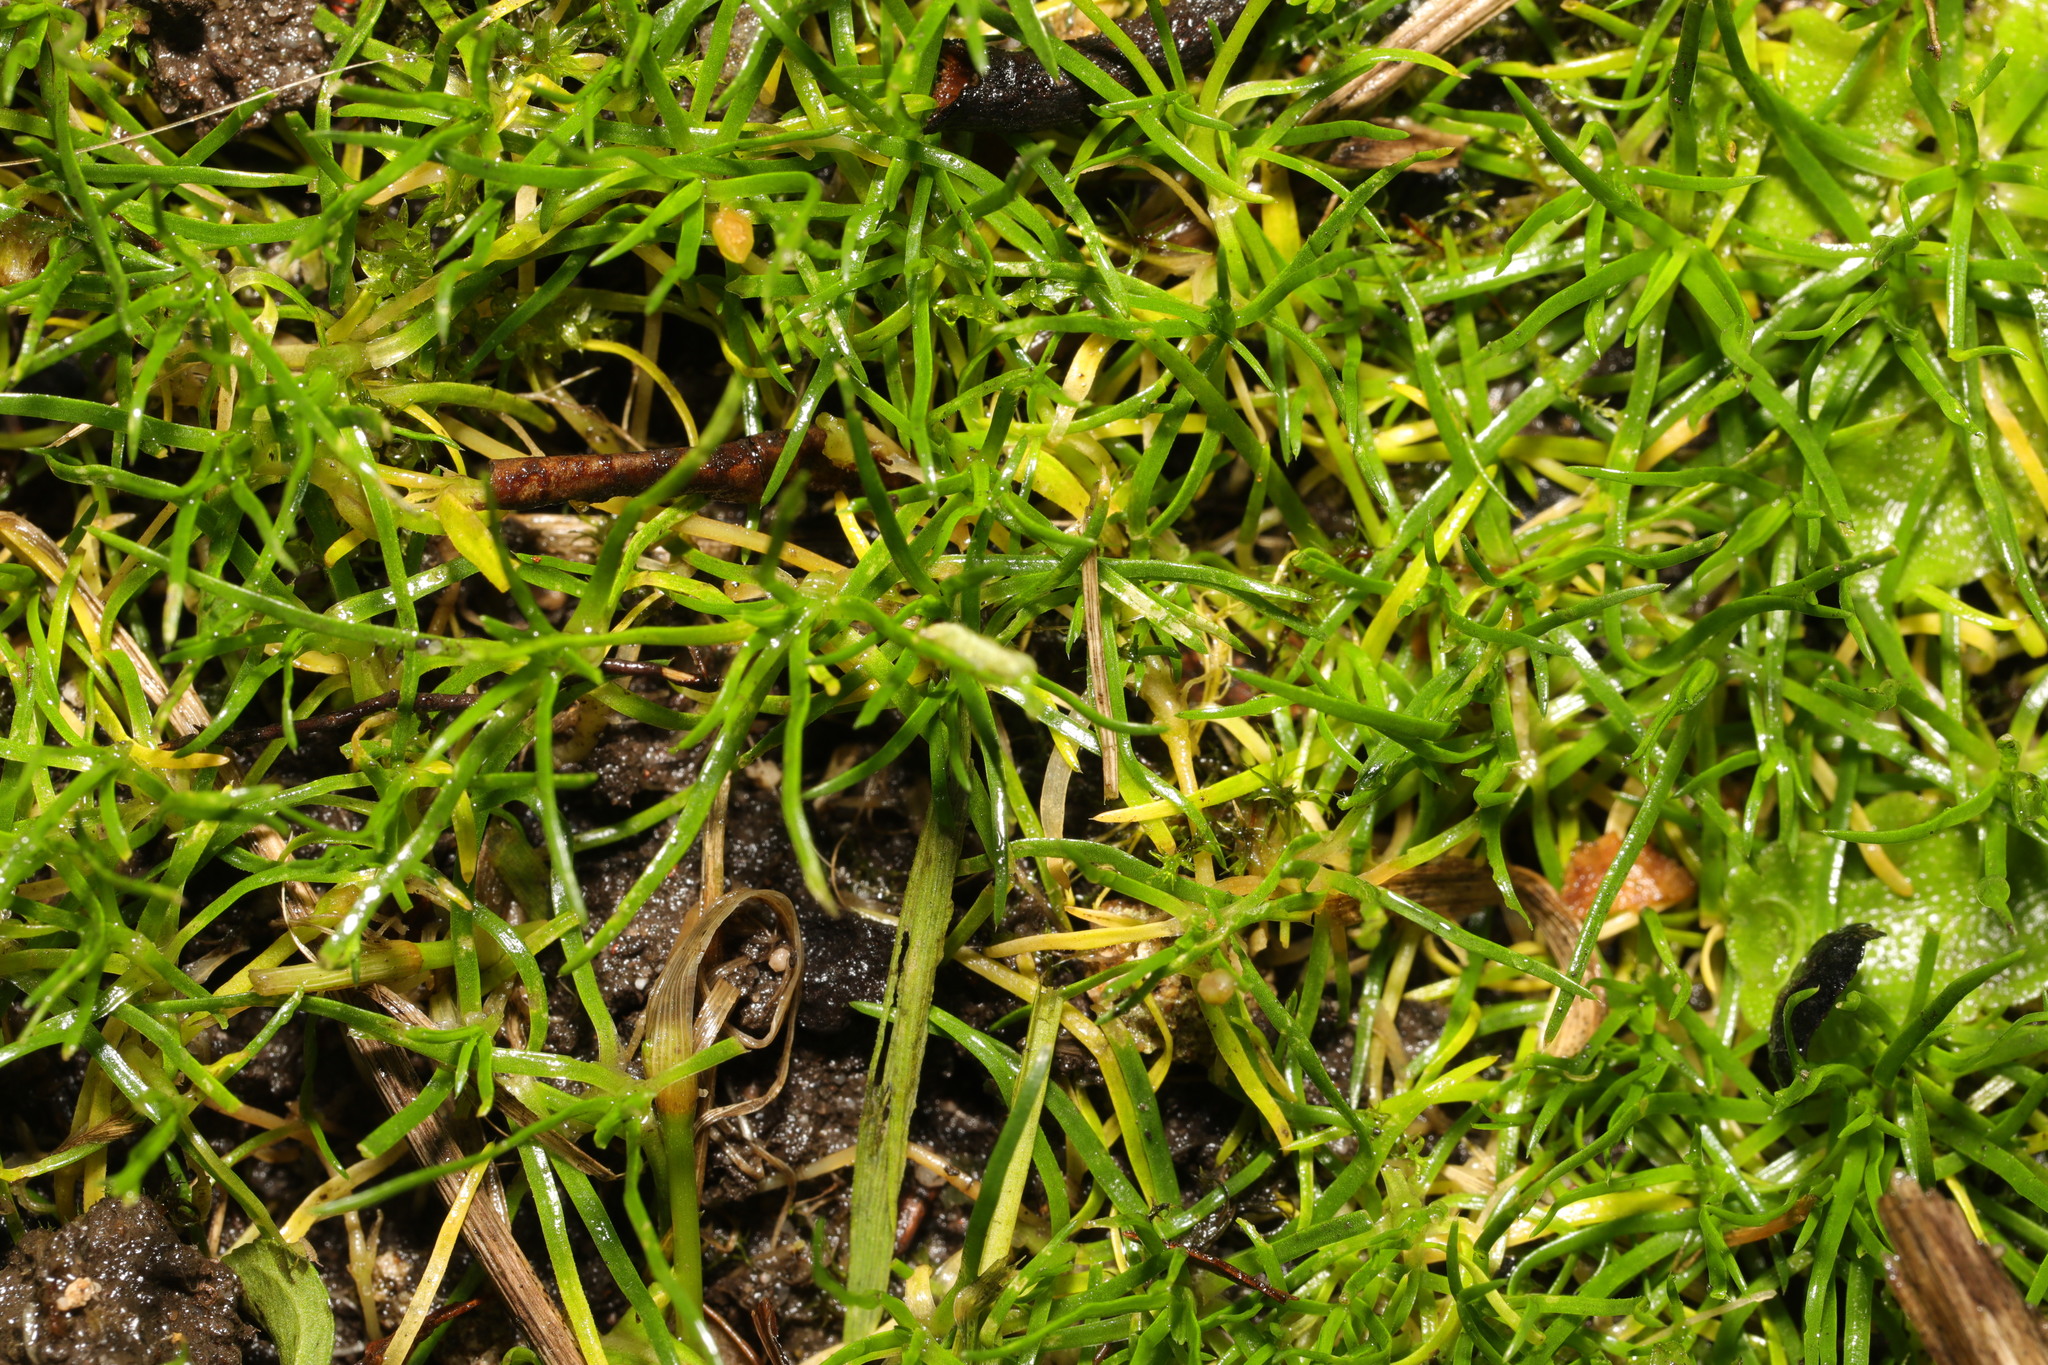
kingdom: Plantae
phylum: Tracheophyta
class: Magnoliopsida
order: Caryophyllales
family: Caryophyllaceae
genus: Sagina
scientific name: Sagina procumbens
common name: Procumbent pearlwort
